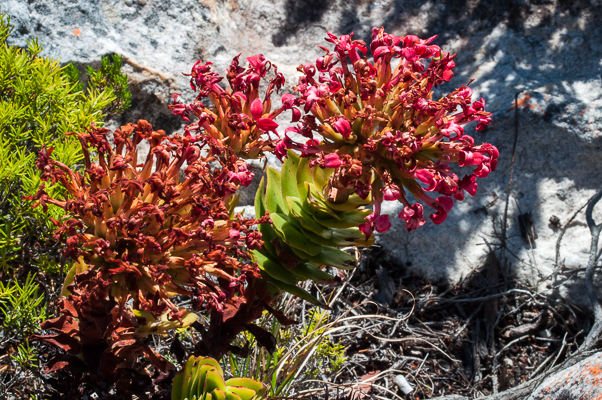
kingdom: Plantae
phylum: Tracheophyta
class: Magnoliopsida
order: Saxifragales
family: Crassulaceae
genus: Crassula
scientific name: Crassula coccinea
